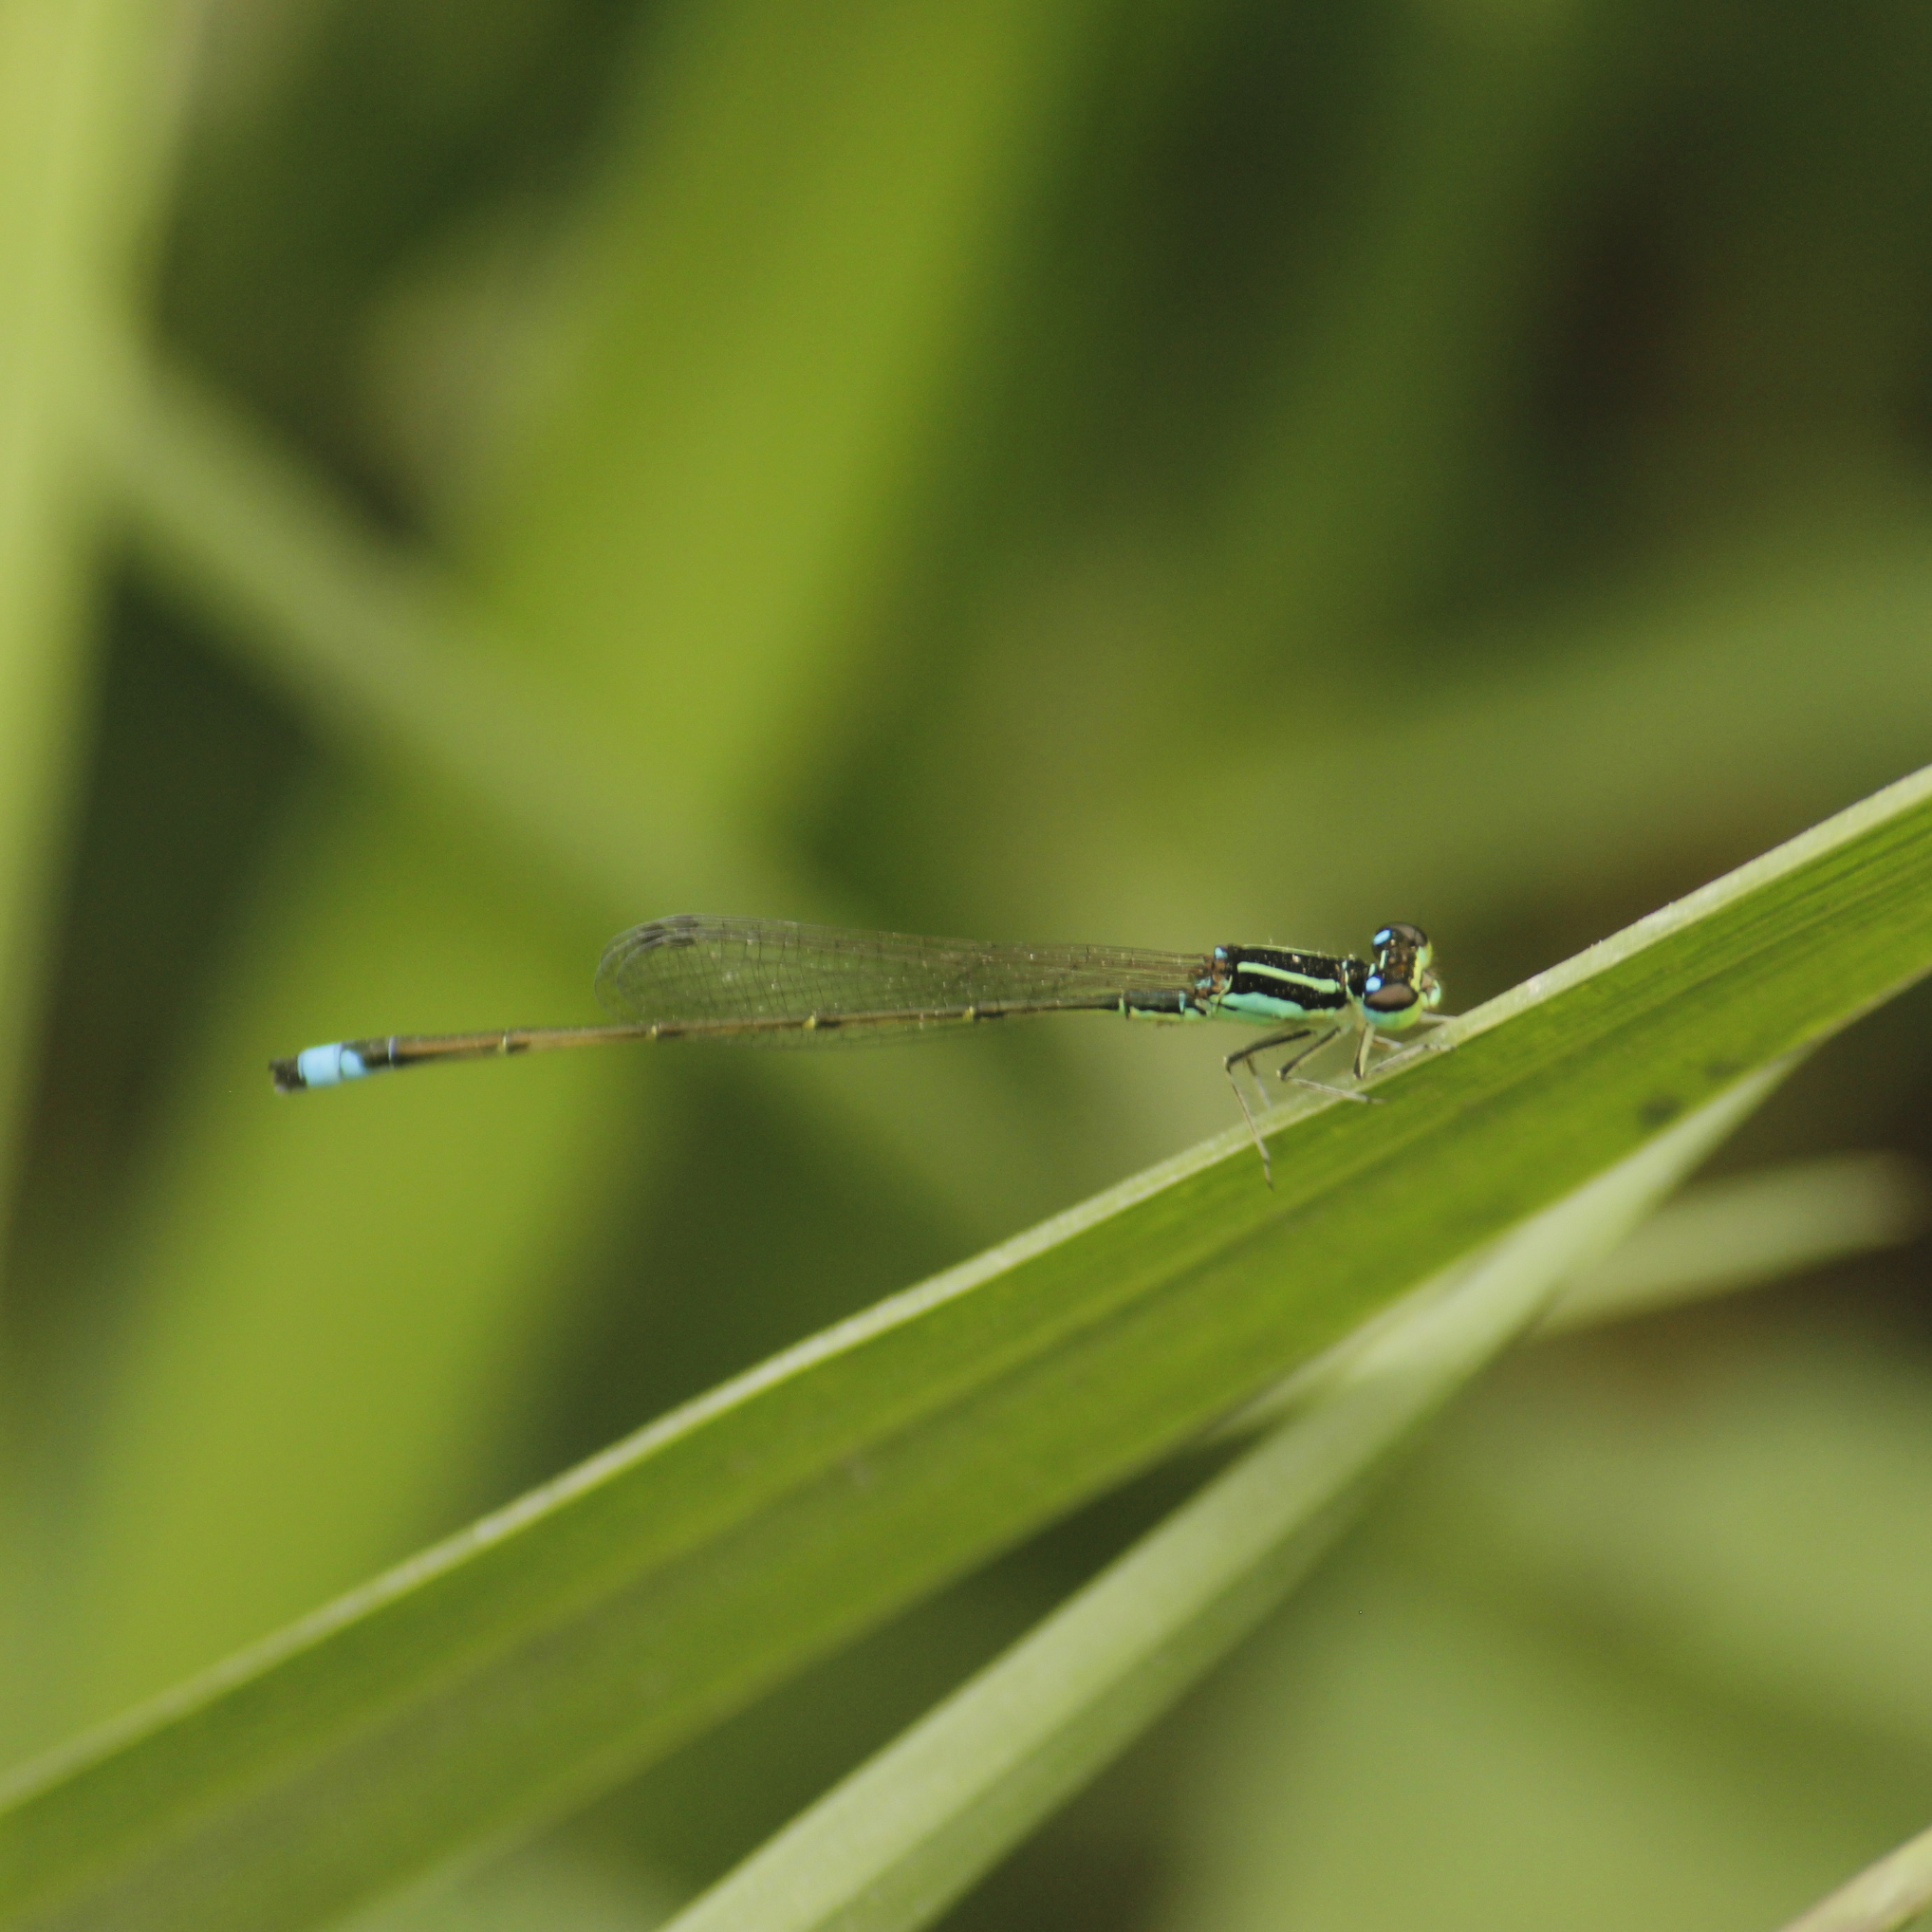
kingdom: Animalia
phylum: Arthropoda
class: Insecta
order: Odonata
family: Coenagrionidae
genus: Ischnura
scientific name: Ischnura capreolus
